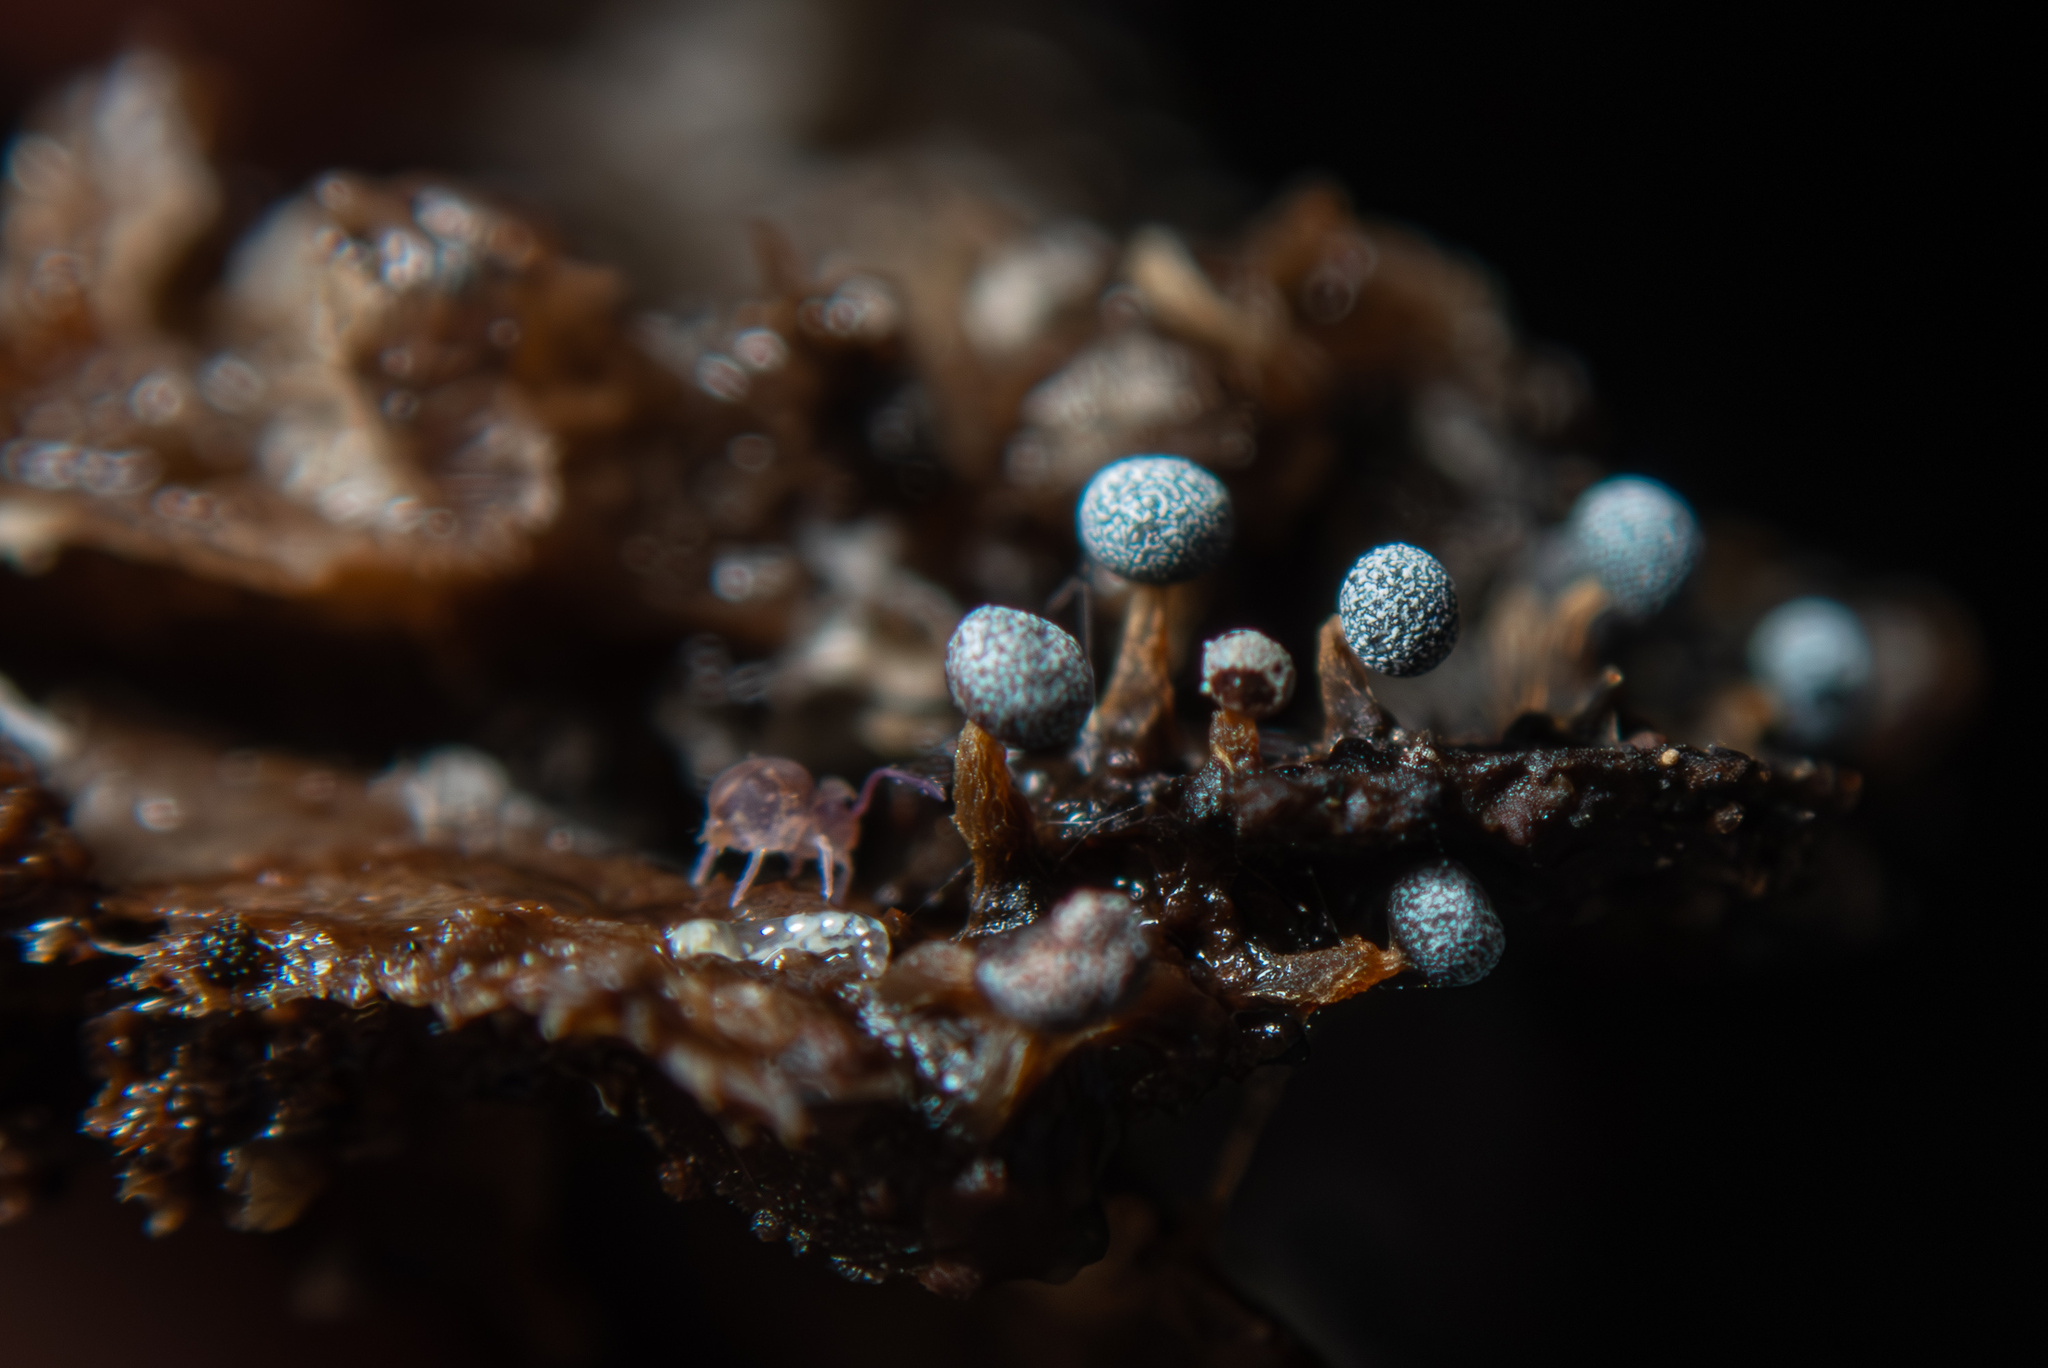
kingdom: Protozoa
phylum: Mycetozoa
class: Myxomycetes
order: Physarales
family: Didymiaceae
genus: Didymium
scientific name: Didymium squamulosum
